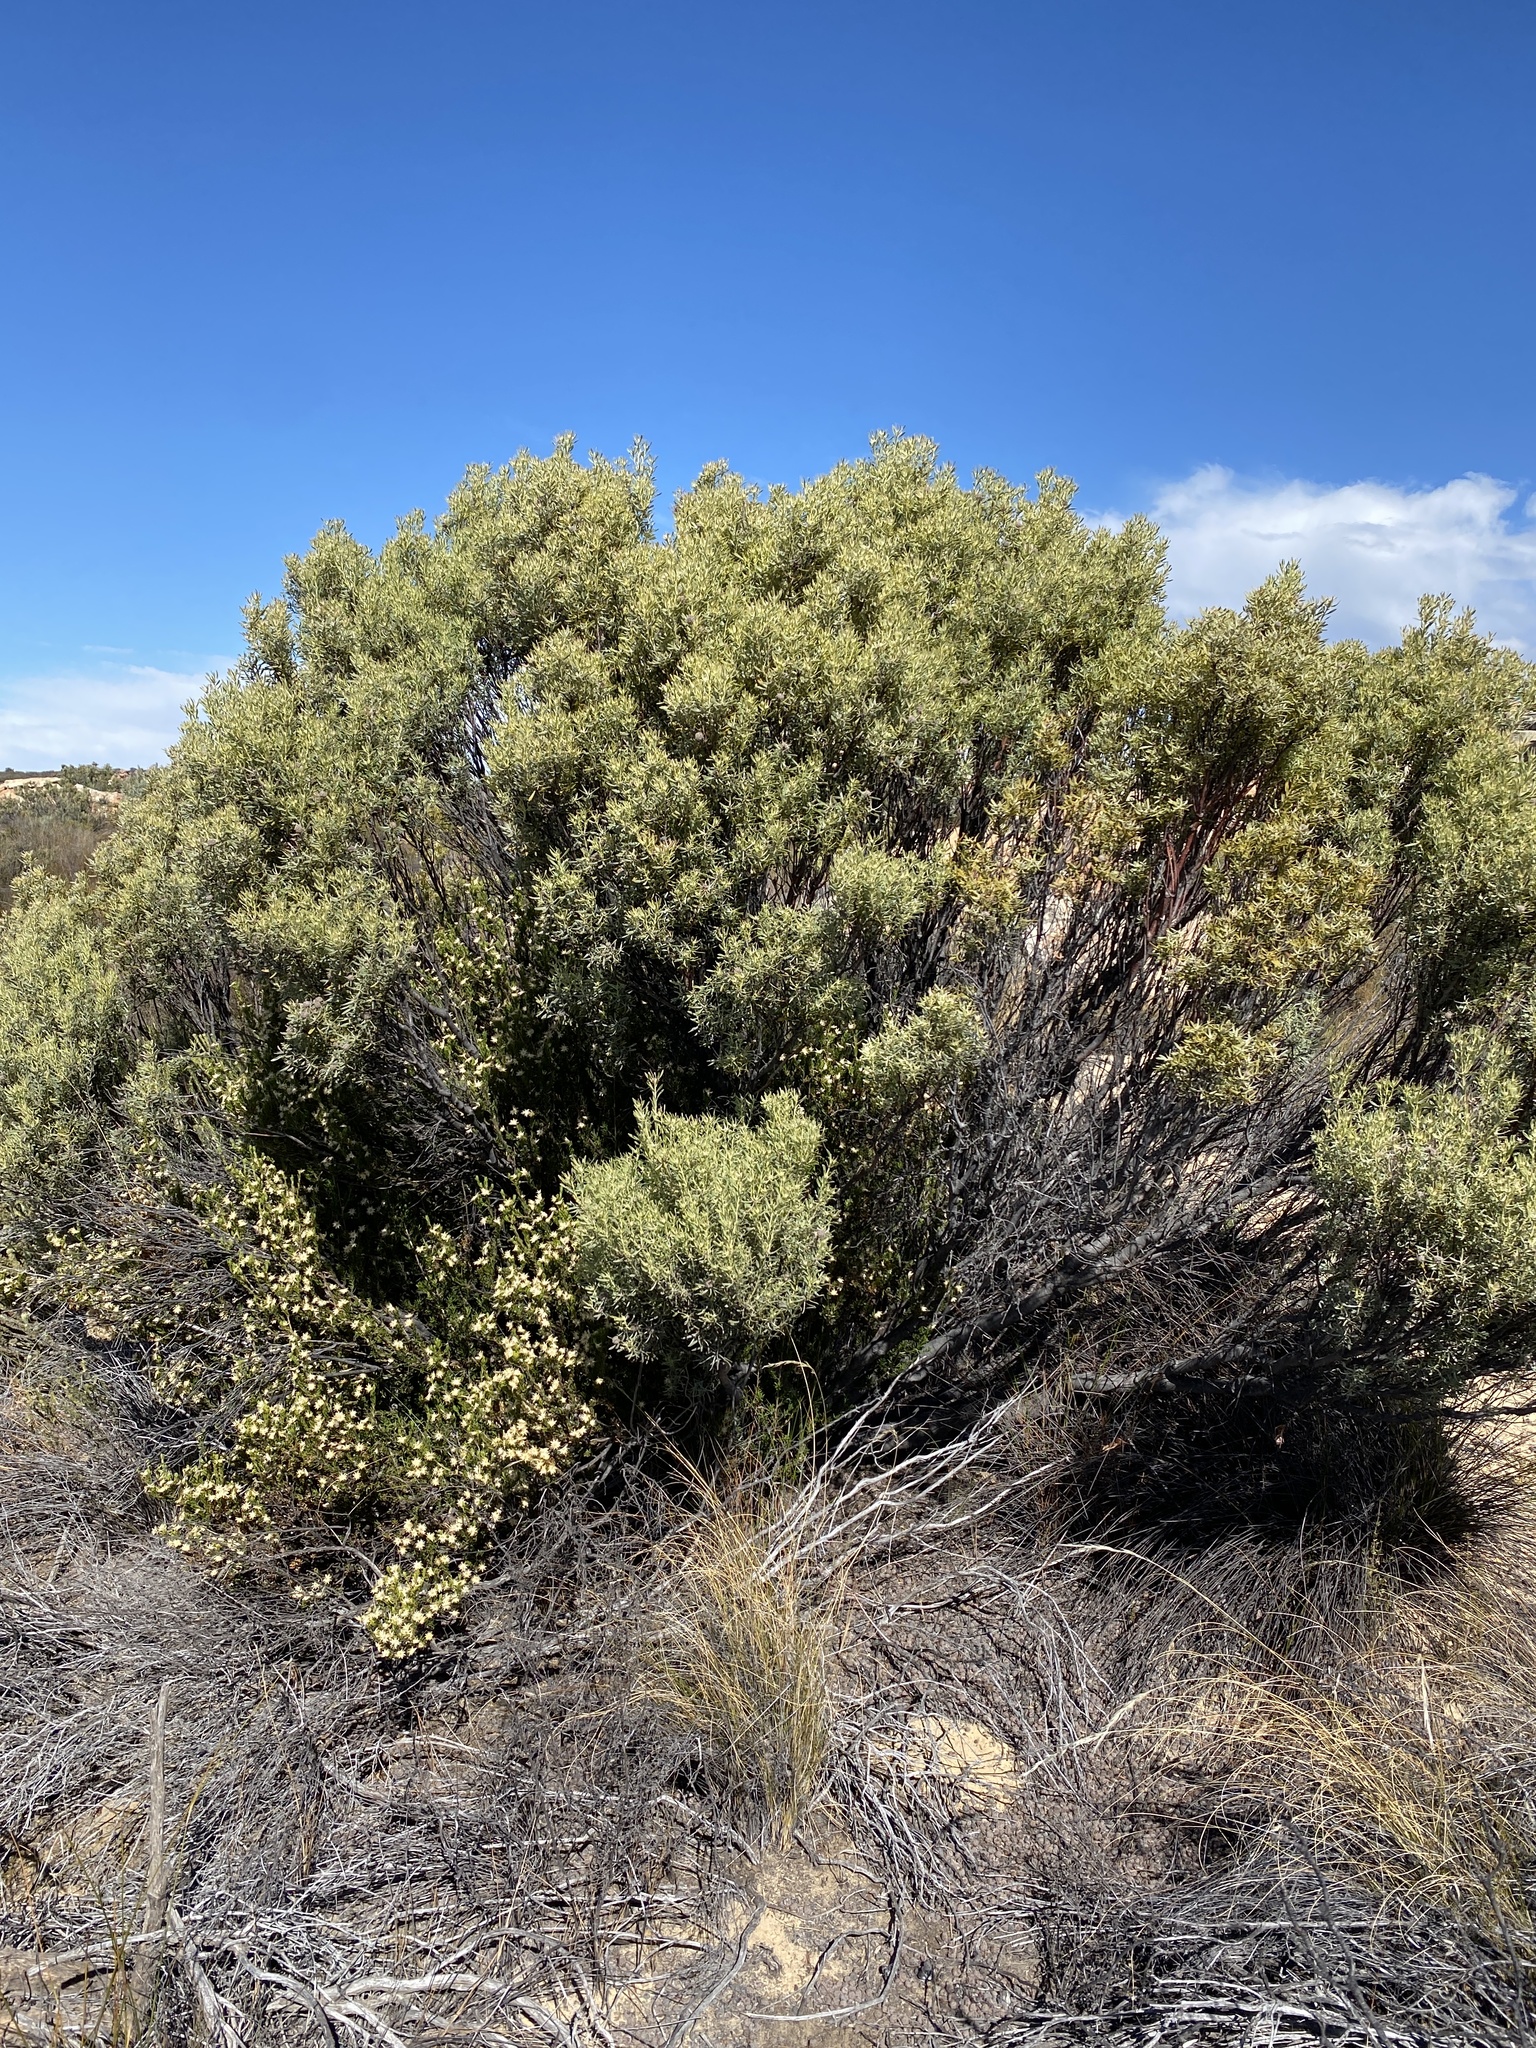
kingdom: Plantae
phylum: Tracheophyta
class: Magnoliopsida
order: Proteales
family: Proteaceae
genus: Leucadendron
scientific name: Leucadendron pubescens
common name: Grey conebush
